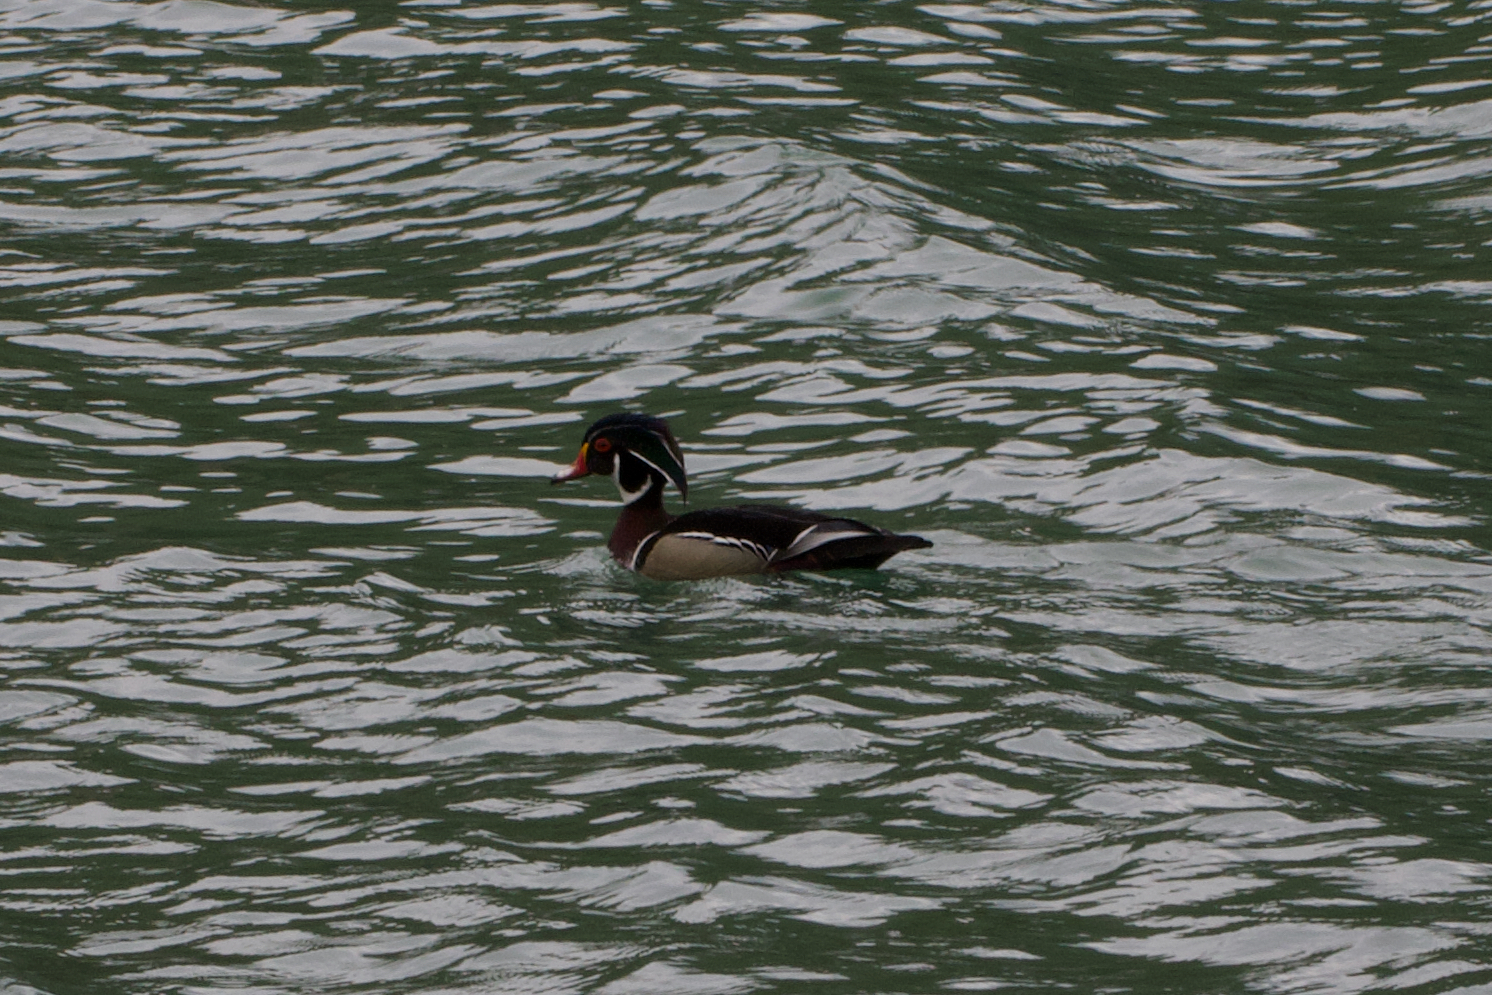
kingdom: Animalia
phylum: Chordata
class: Aves
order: Anseriformes
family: Anatidae
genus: Aix
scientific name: Aix sponsa
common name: Wood duck
